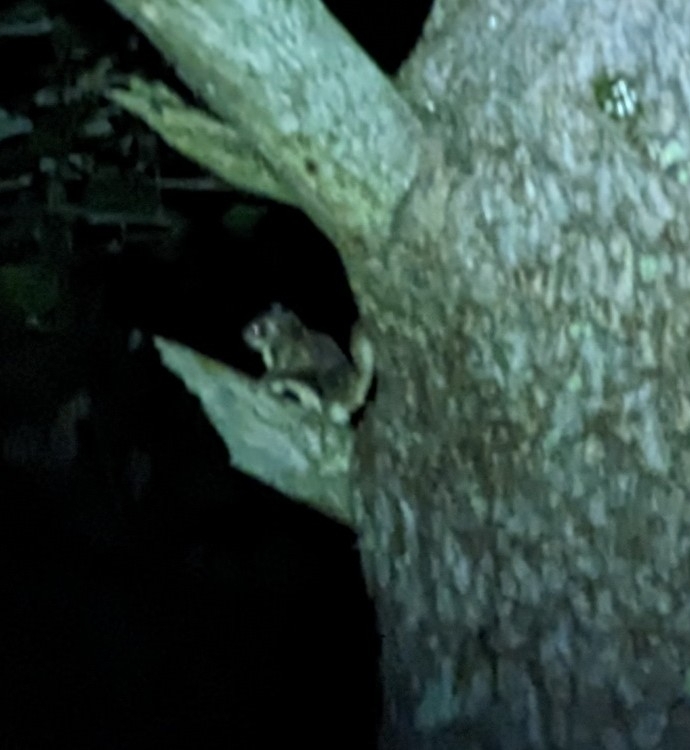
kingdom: Animalia
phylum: Chordata
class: Mammalia
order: Rodentia
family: Sciuridae
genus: Glaucomys
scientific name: Glaucomys volans
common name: Southern flying squirrel
